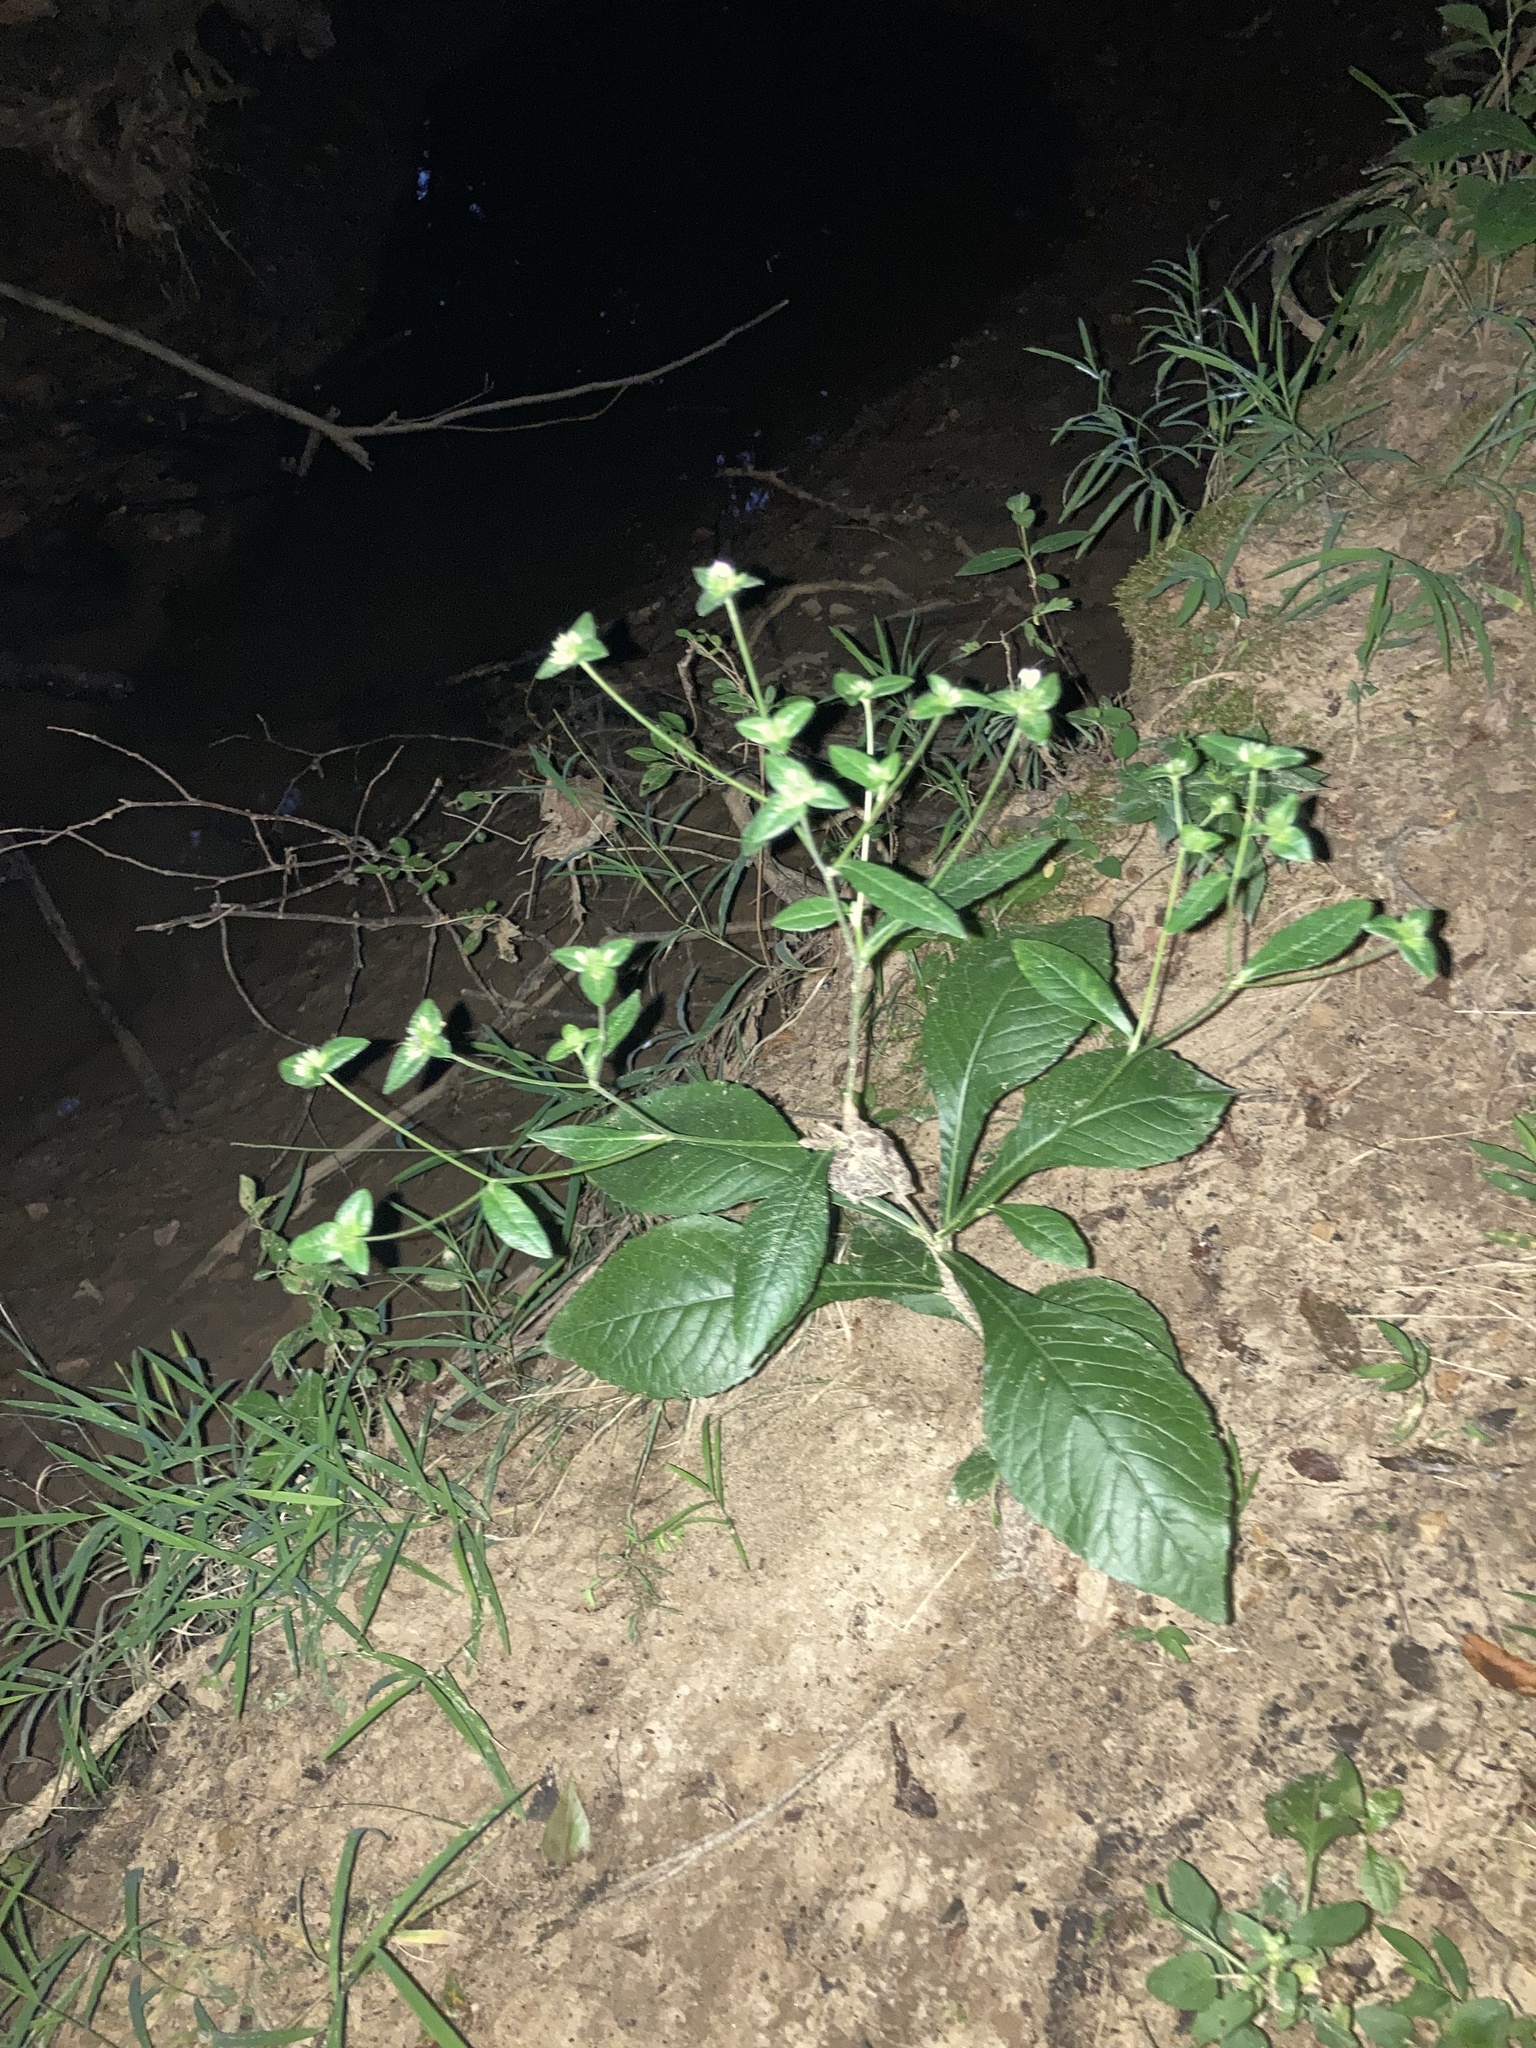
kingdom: Plantae
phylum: Tracheophyta
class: Magnoliopsida
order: Asterales
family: Asteraceae
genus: Elephantopus
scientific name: Elephantopus carolinianus
